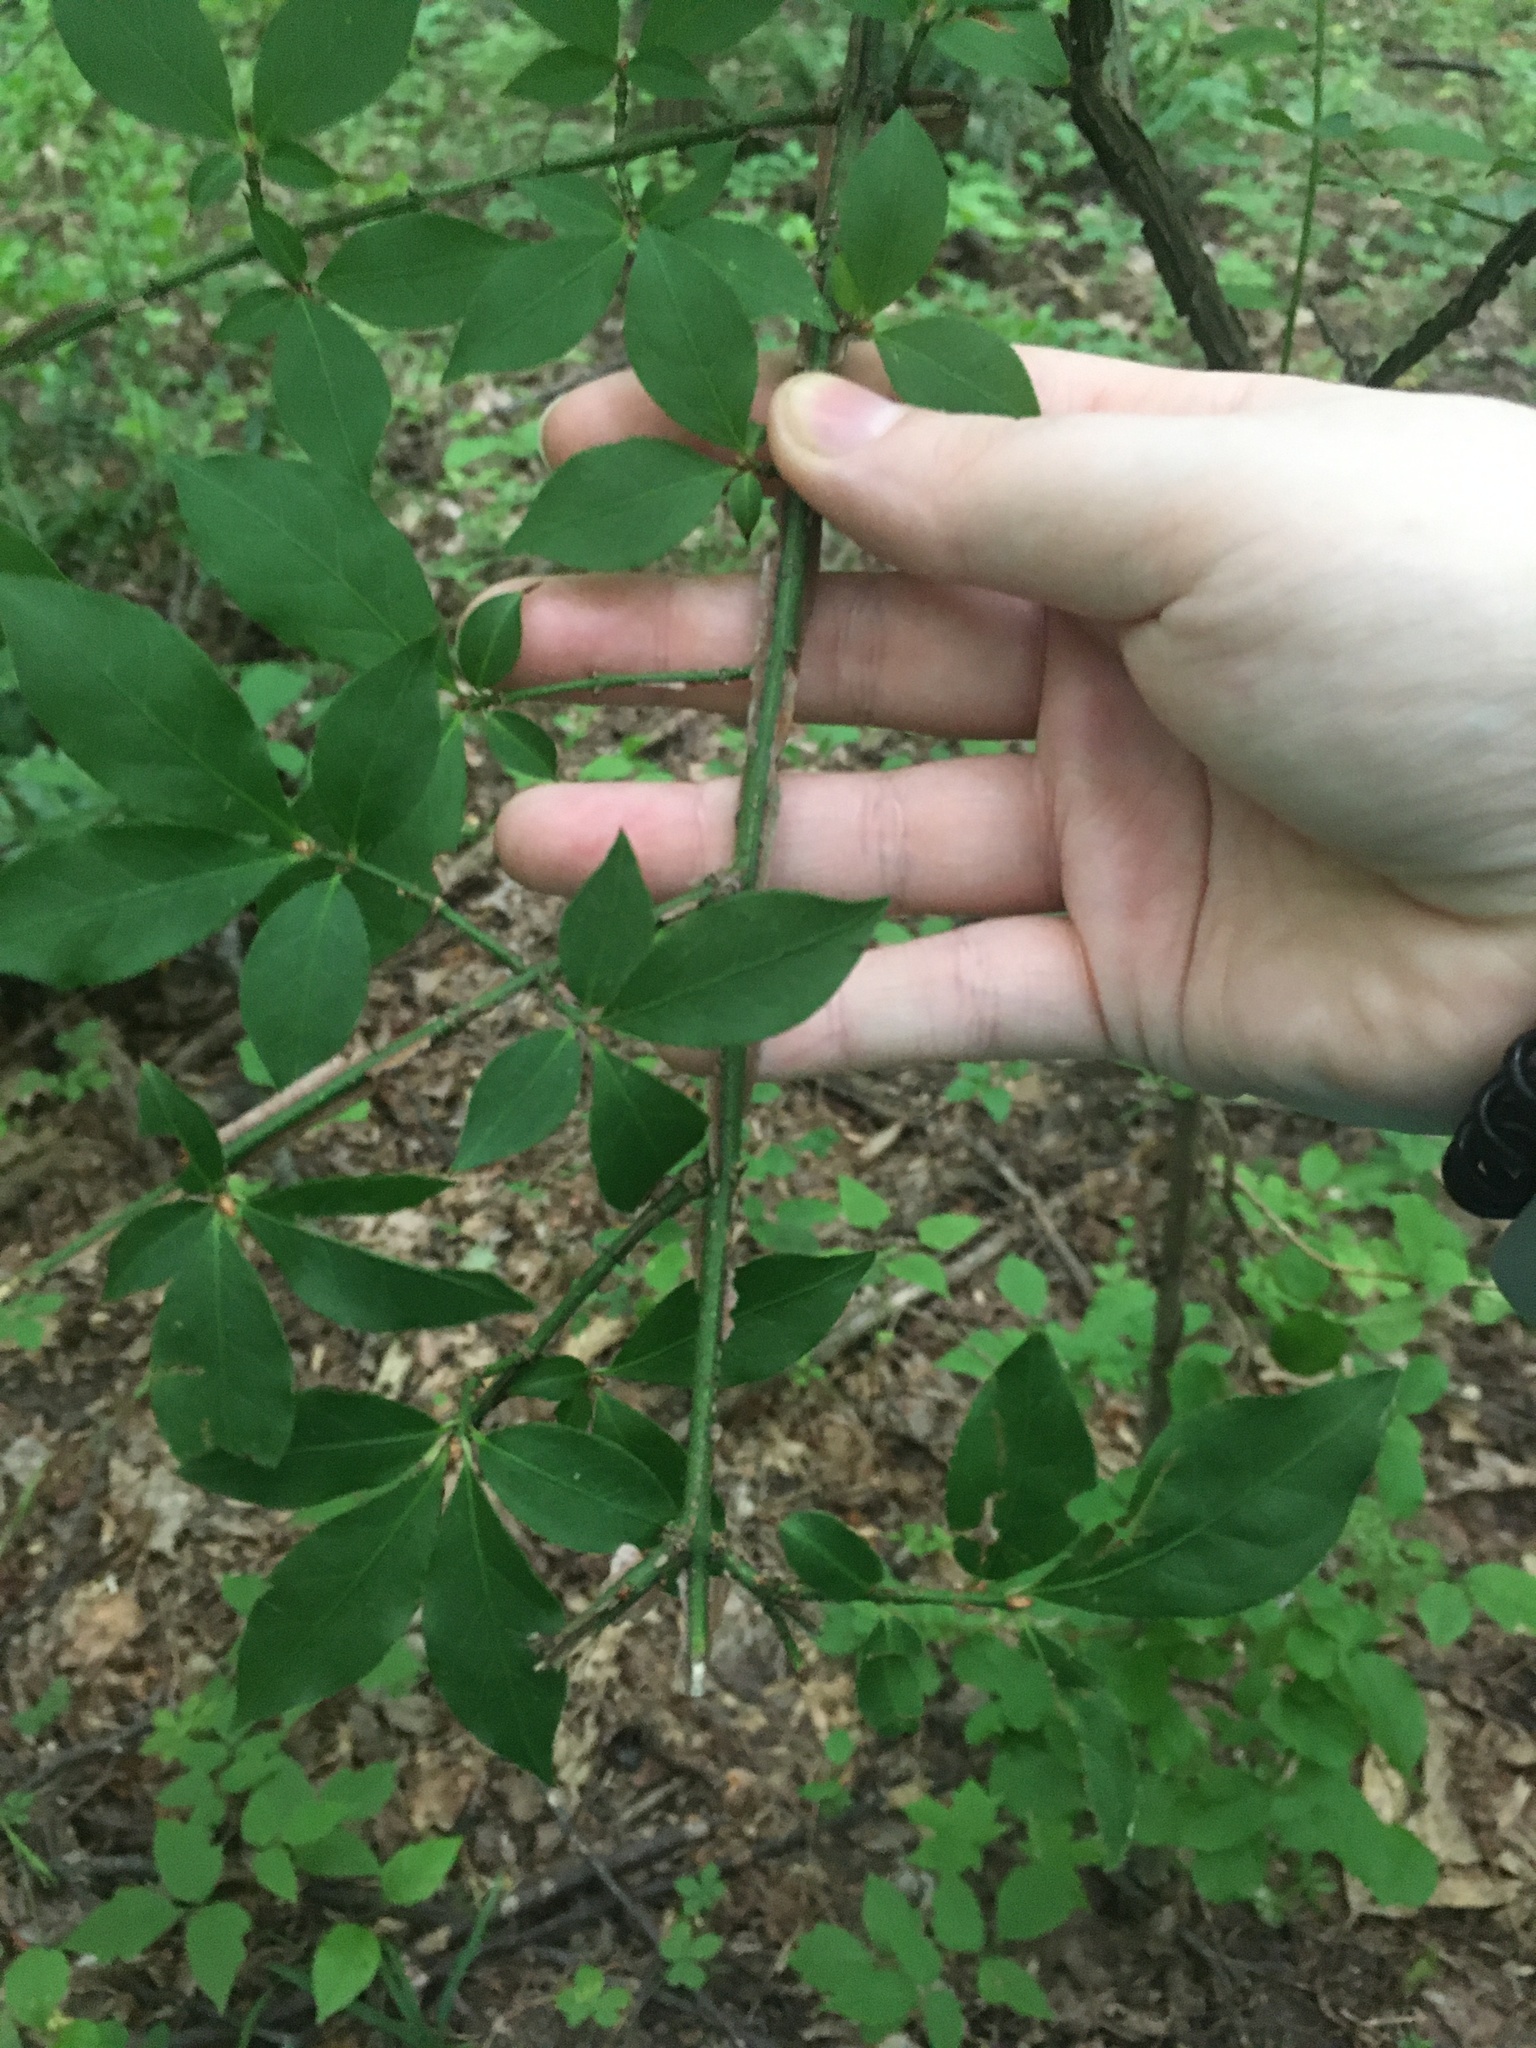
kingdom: Plantae
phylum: Tracheophyta
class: Magnoliopsida
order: Celastrales
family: Celastraceae
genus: Euonymus
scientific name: Euonymus alatus
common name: Winged euonymus
